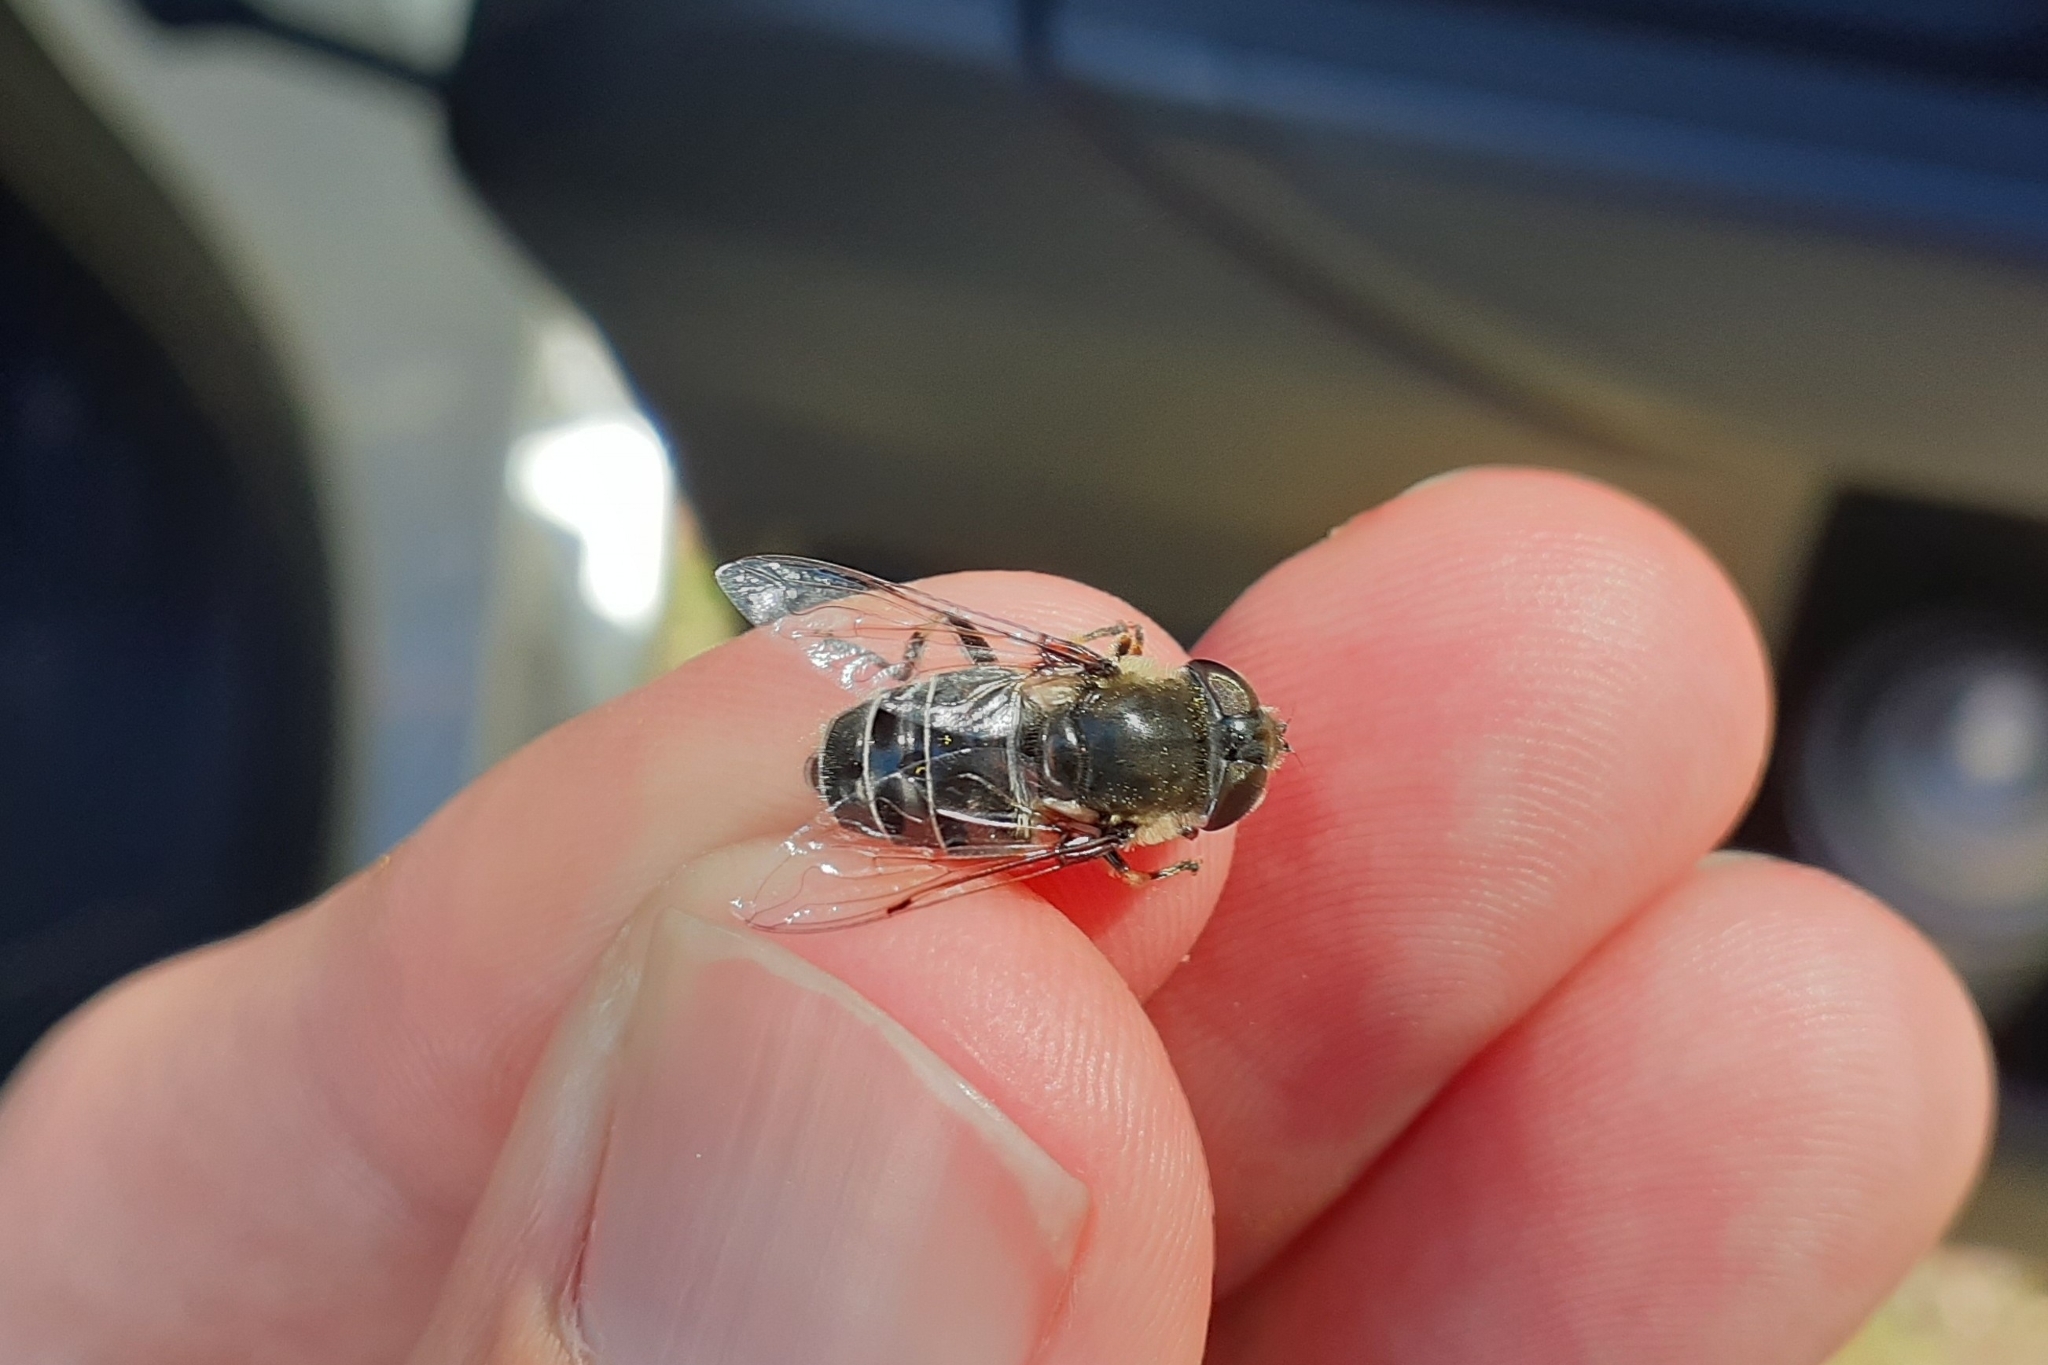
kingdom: Animalia
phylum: Arthropoda
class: Insecta
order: Diptera
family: Syrphidae
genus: Eristalis
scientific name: Eristalis dimidiata
